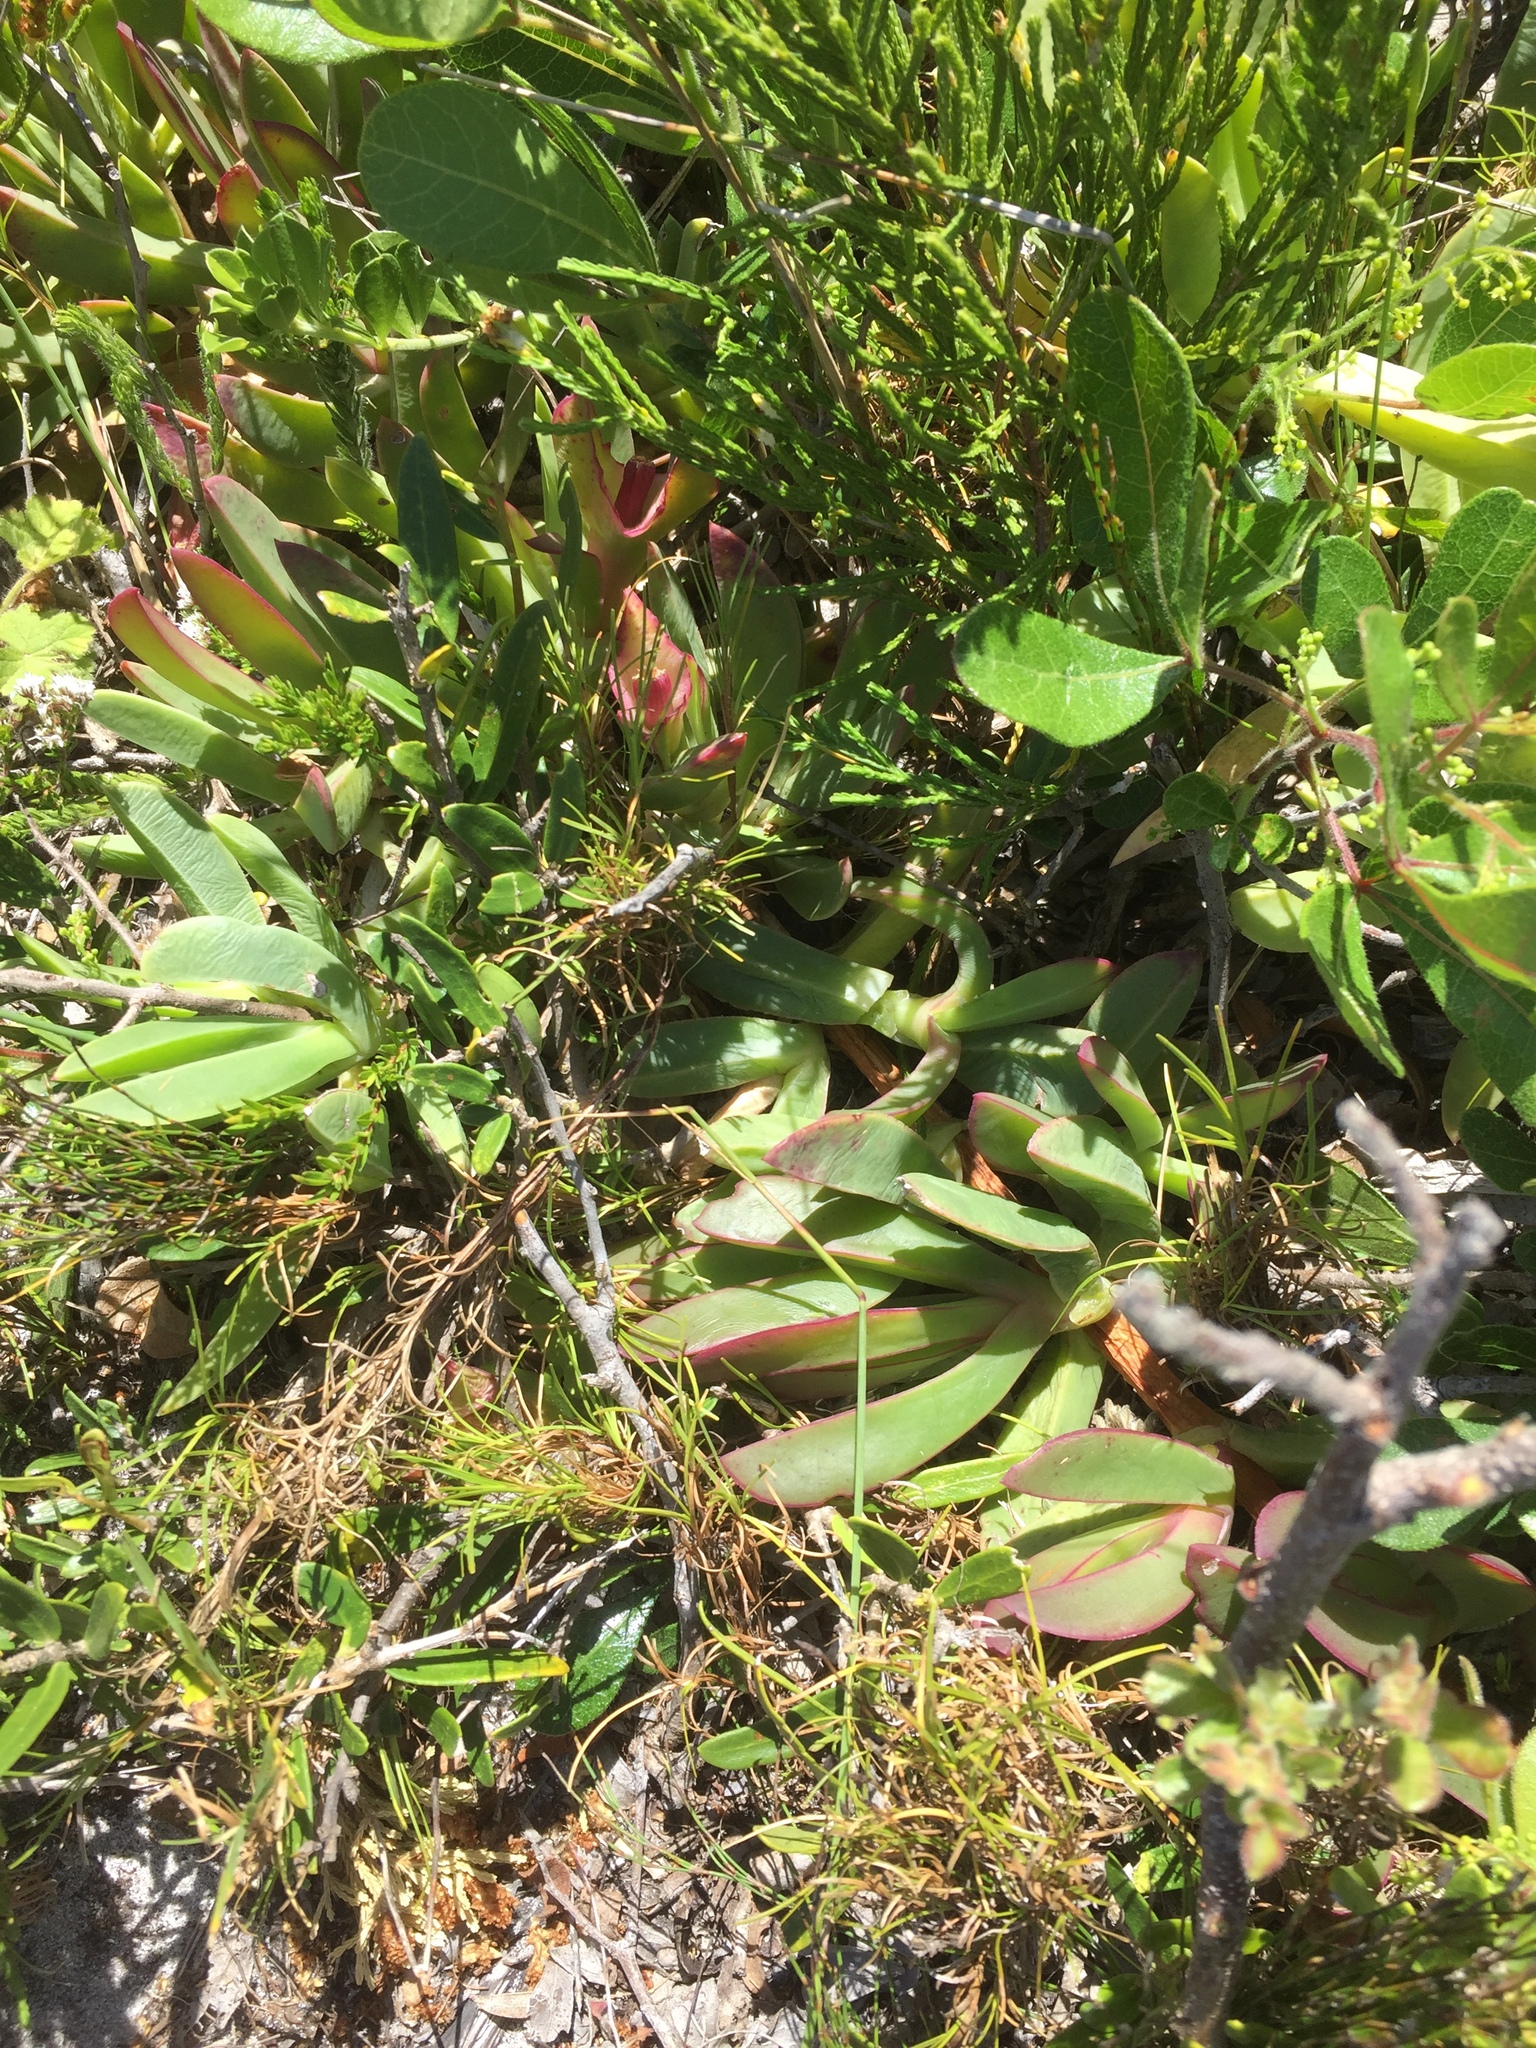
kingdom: Plantae
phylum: Tracheophyta
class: Magnoliopsida
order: Caryophyllales
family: Aizoaceae
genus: Carpobrotus
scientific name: Carpobrotus acinaciformis
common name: Sally-my-handsome
